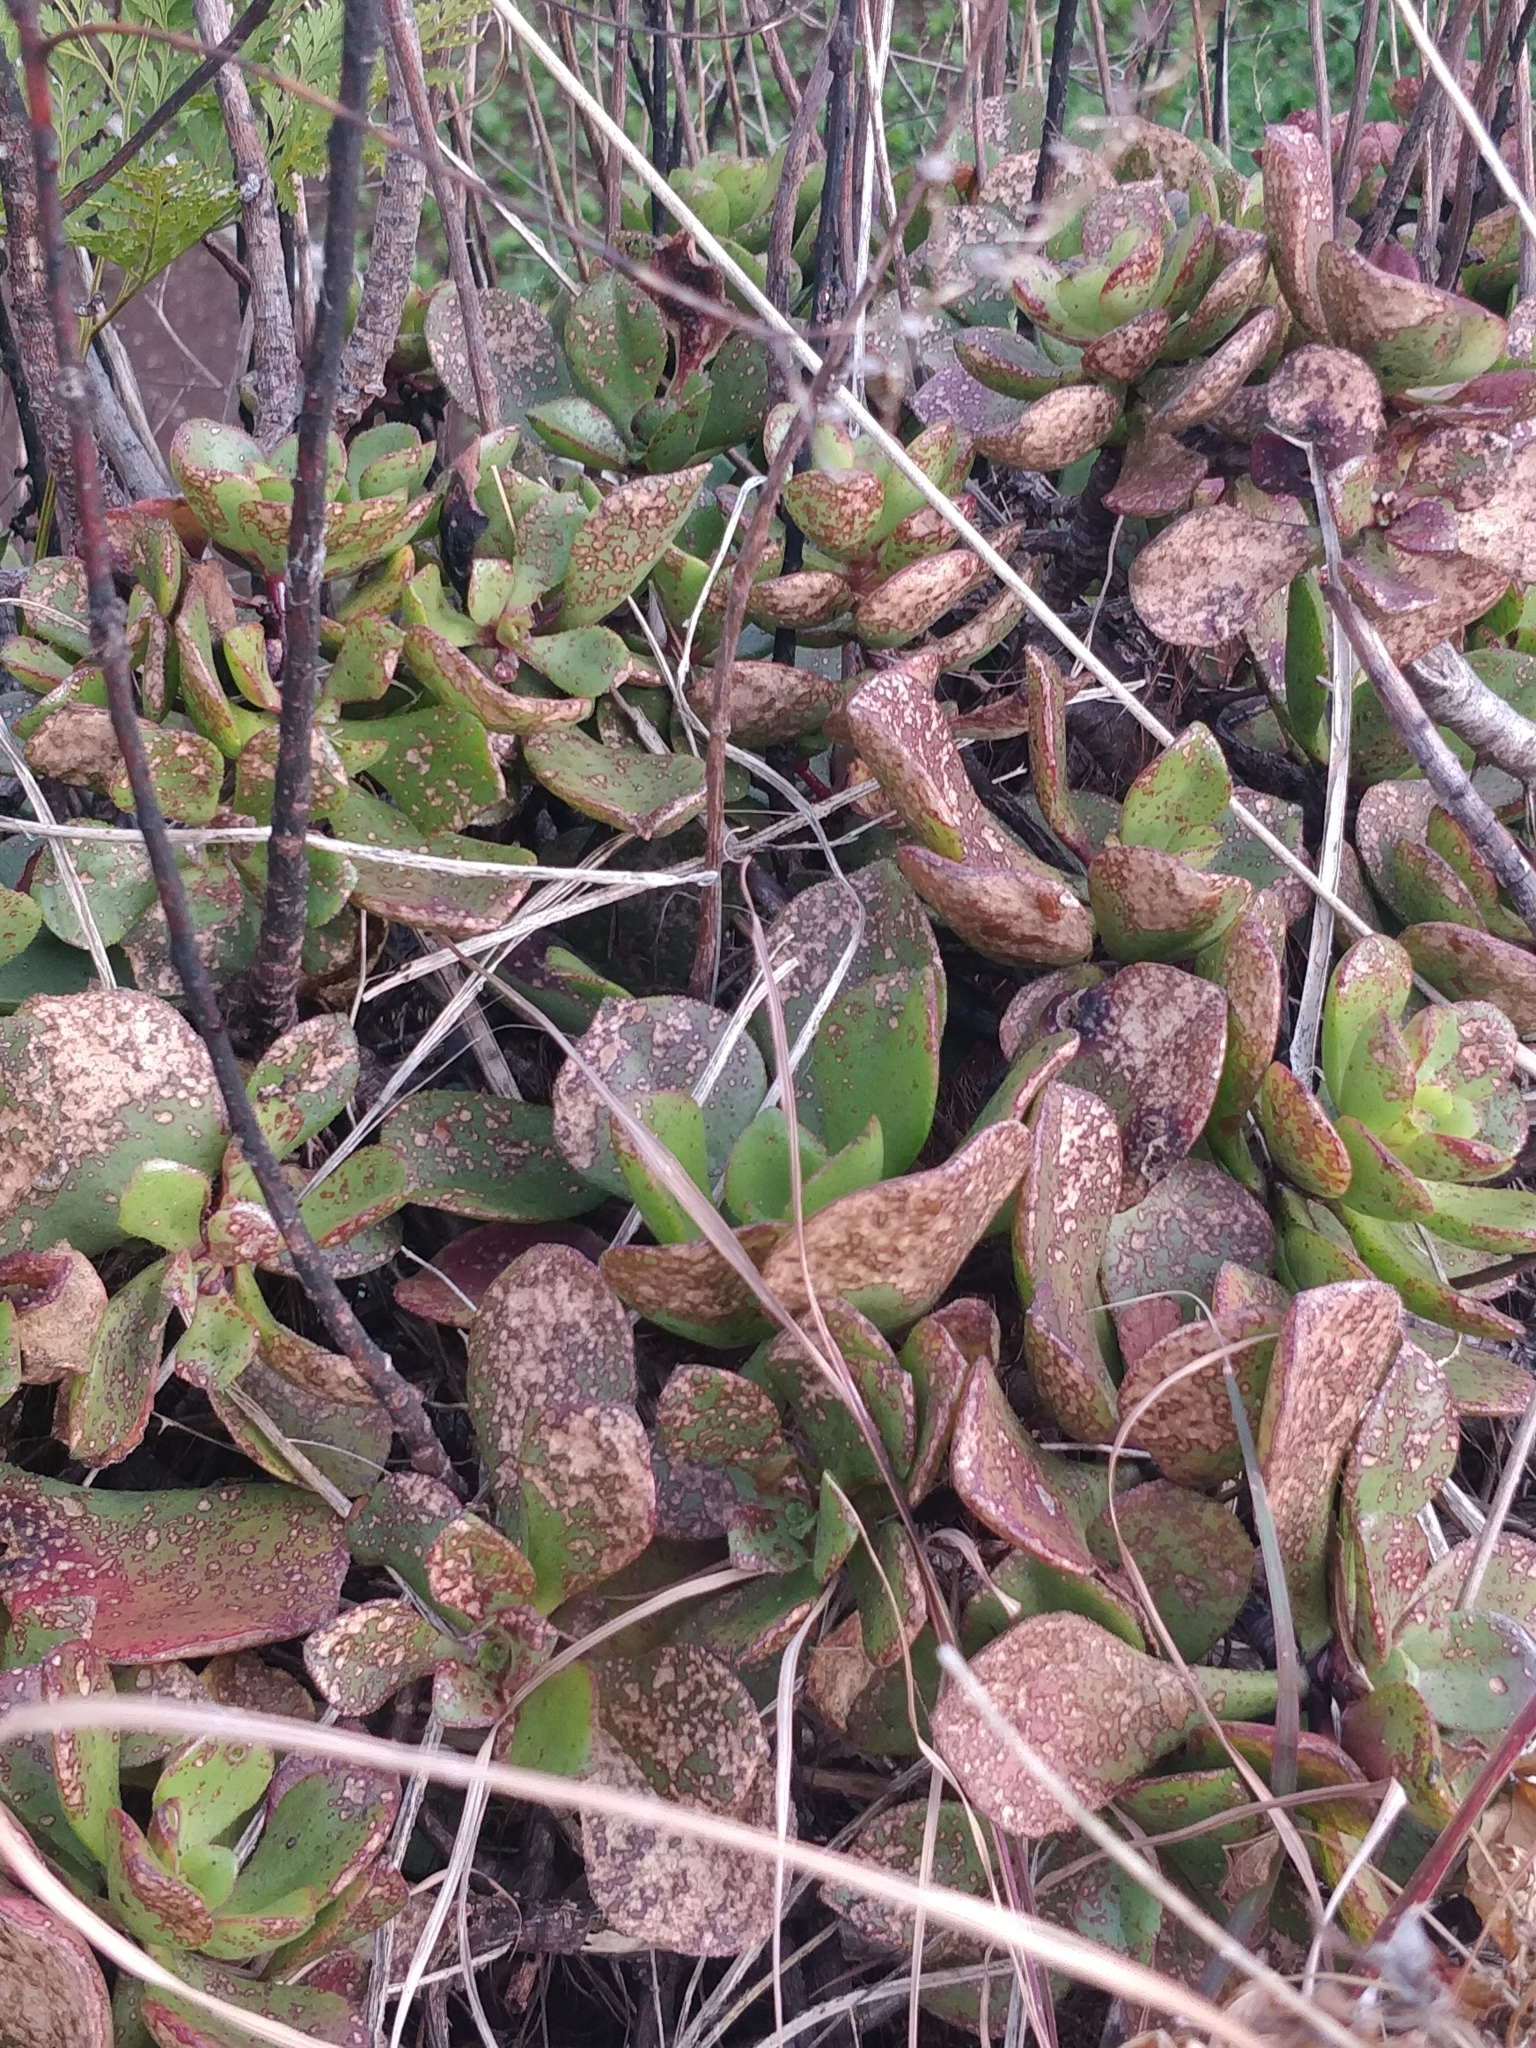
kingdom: Plantae
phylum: Tracheophyta
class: Magnoliopsida
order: Saxifragales
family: Crassulaceae
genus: Aeonium
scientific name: Aeonium glutinosum
